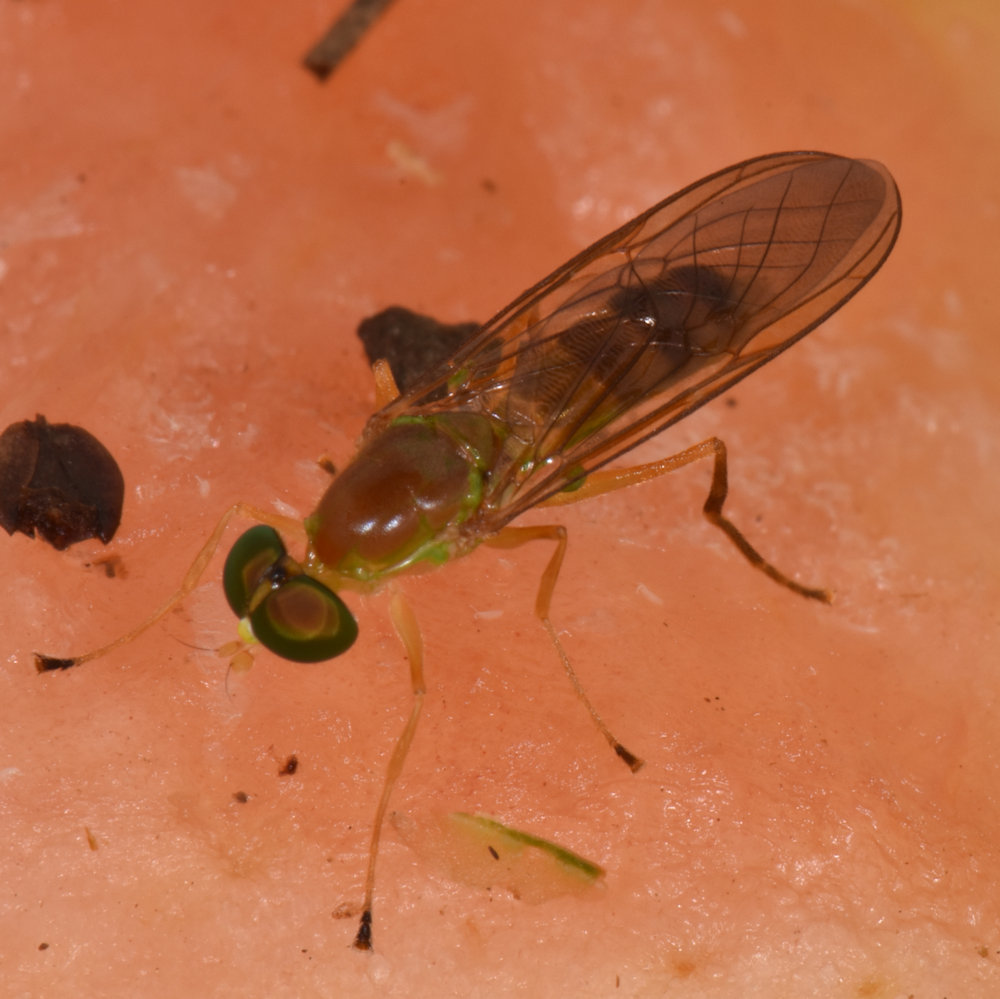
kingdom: Animalia
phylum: Arthropoda
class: Insecta
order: Diptera
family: Stratiomyidae
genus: Ptecticus
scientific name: Ptecticus trivittatus
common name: Compost fly
